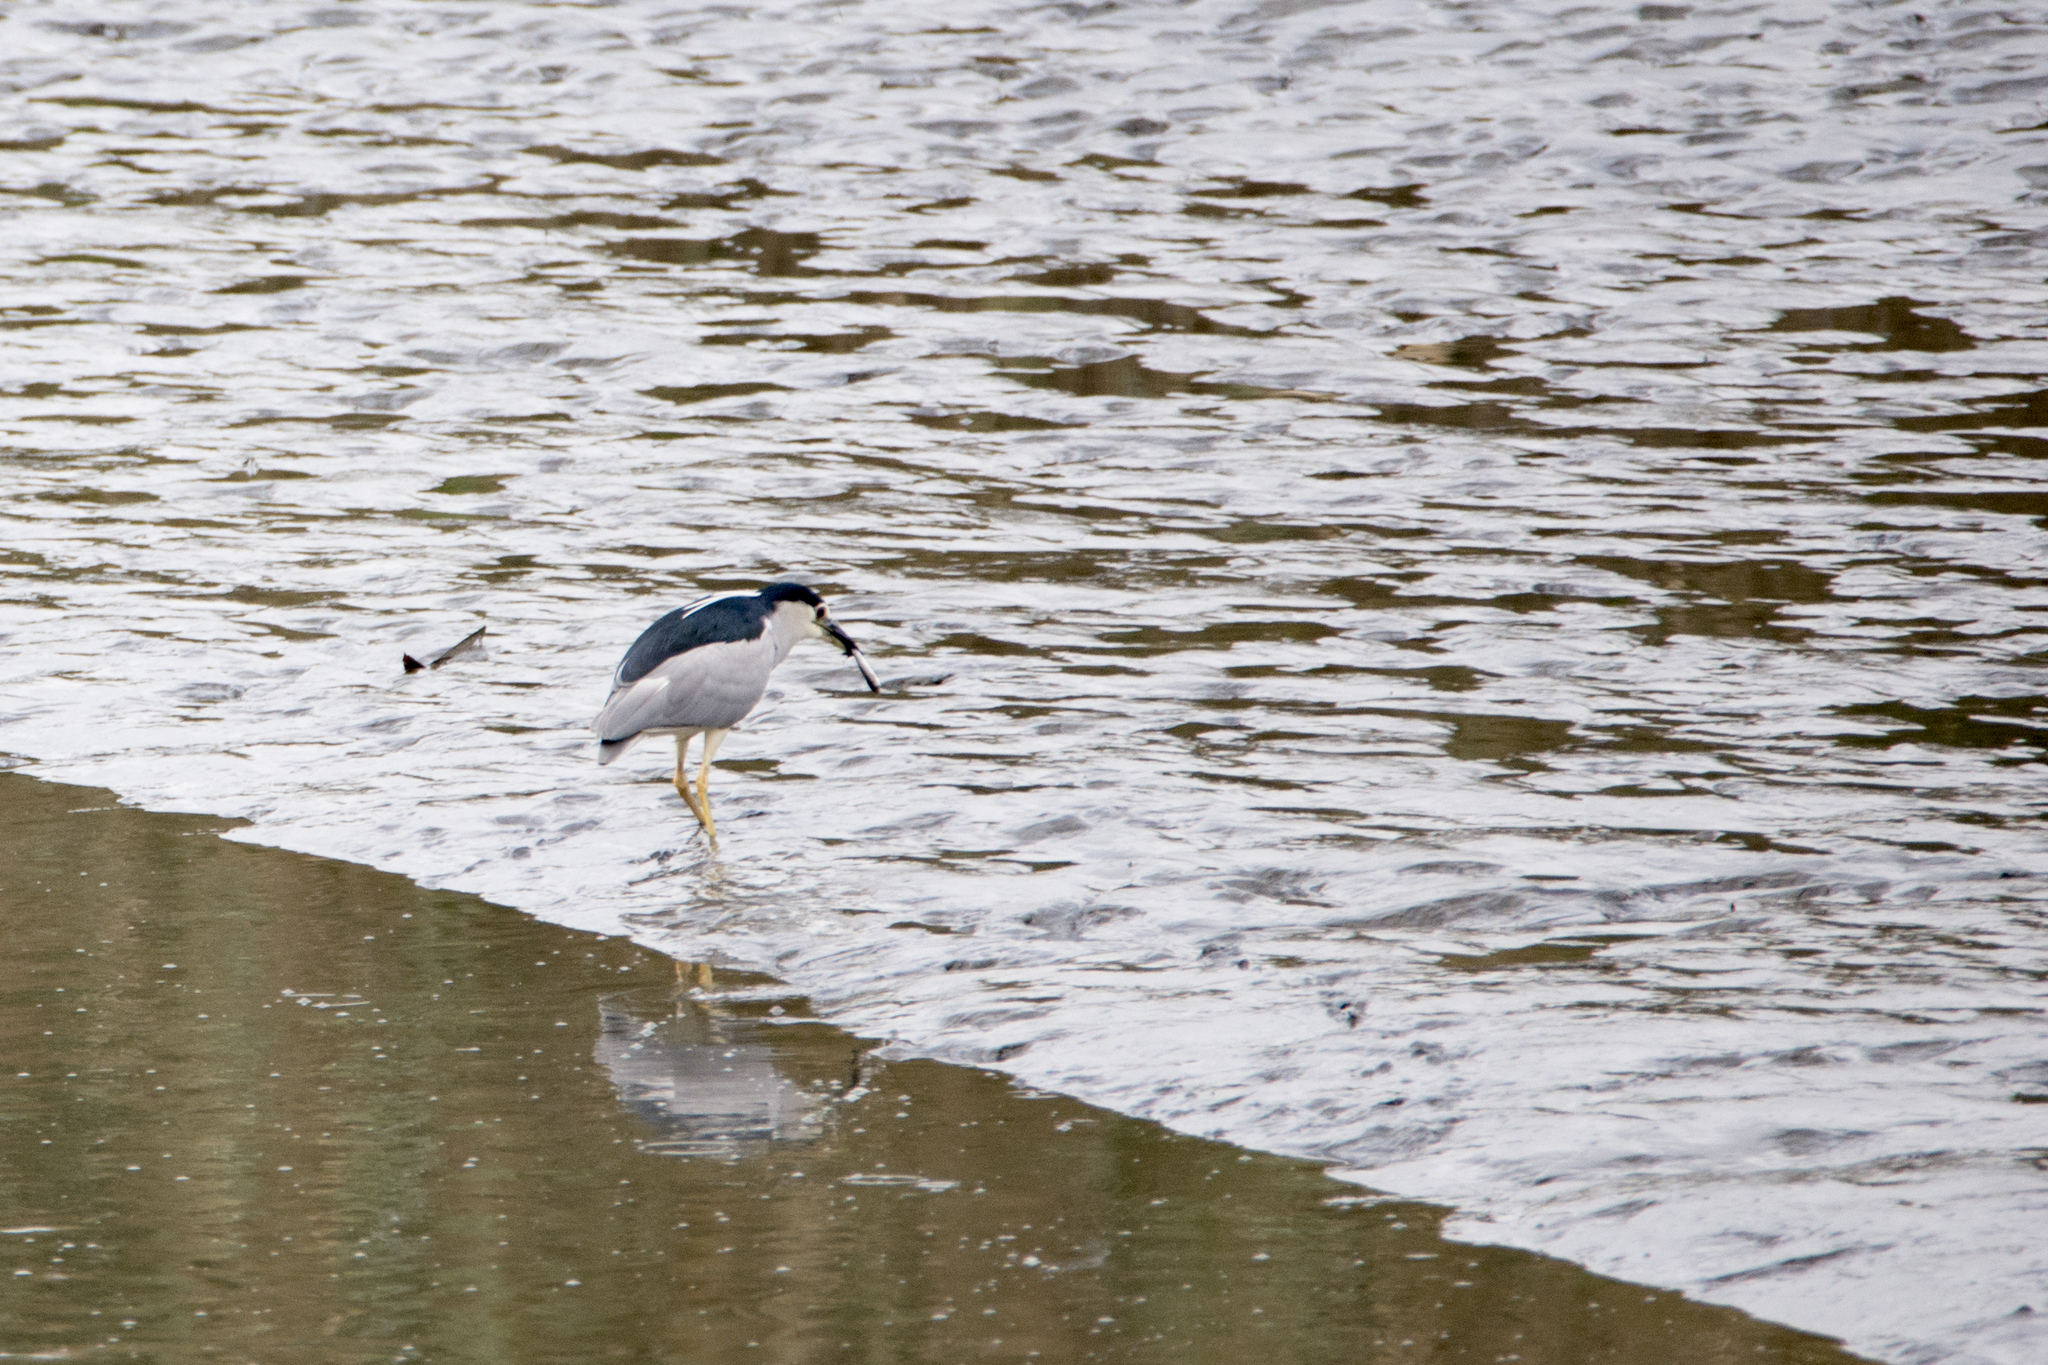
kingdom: Animalia
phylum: Chordata
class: Aves
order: Pelecaniformes
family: Ardeidae
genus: Nycticorax
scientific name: Nycticorax nycticorax
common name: Black-crowned night heron
